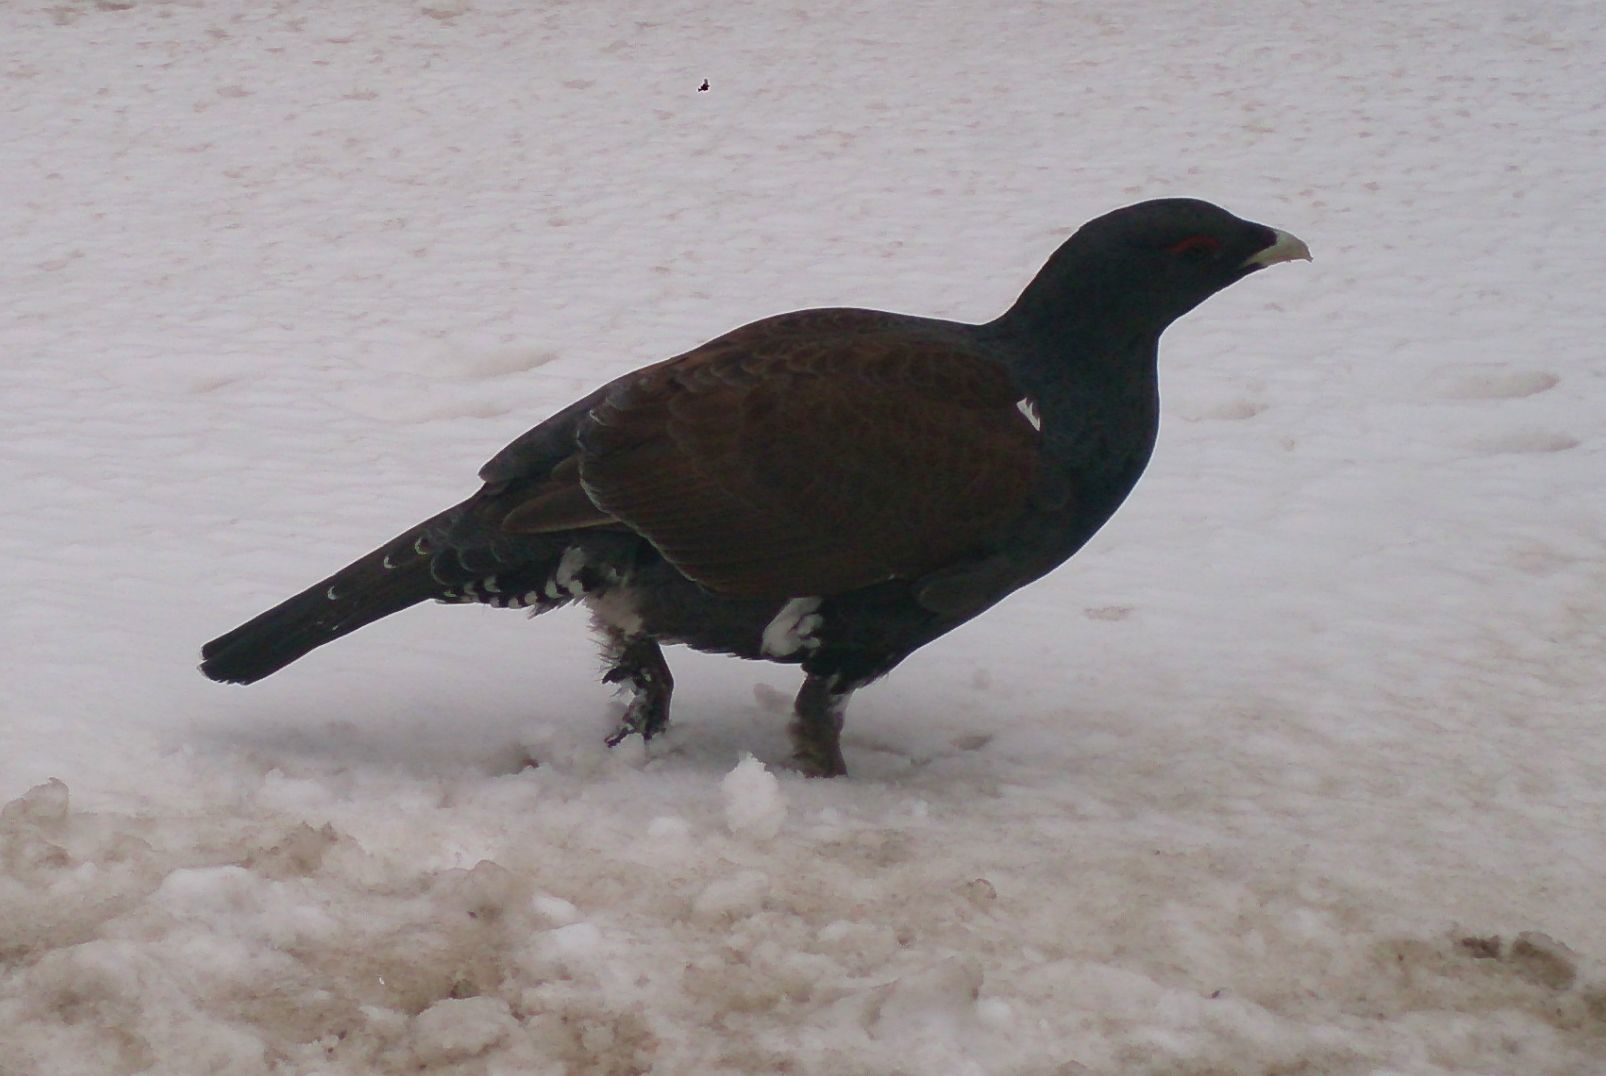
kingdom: Animalia
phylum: Chordata
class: Aves
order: Galliformes
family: Phasianidae
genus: Tetrao
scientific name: Tetrao urogallus
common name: Western capercaillie
